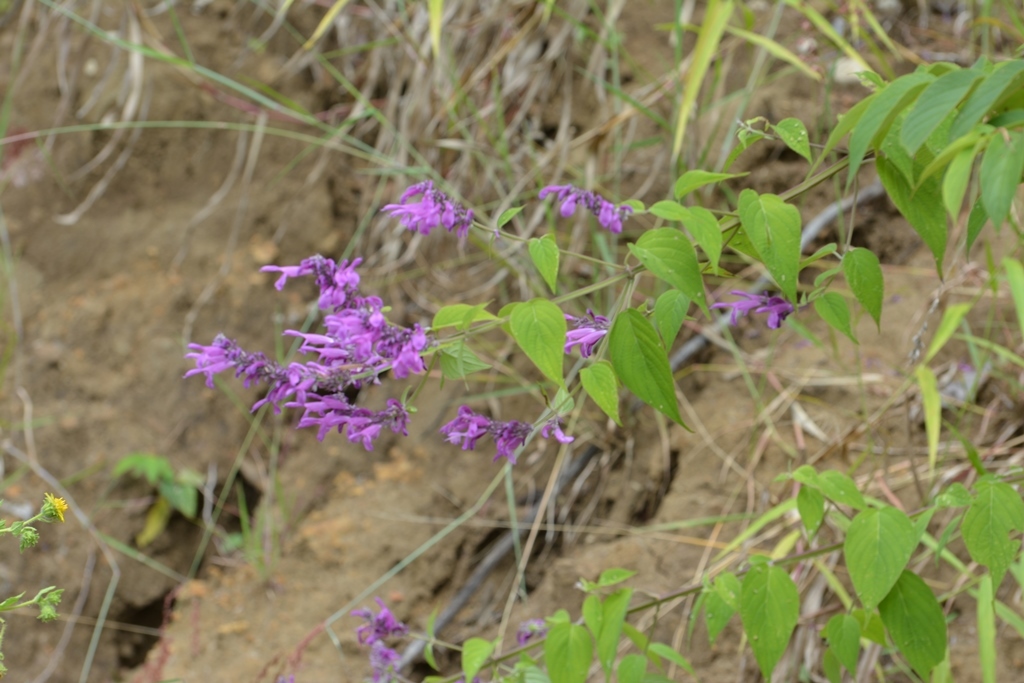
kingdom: Plantae
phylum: Tracheophyta
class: Magnoliopsida
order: Lamiales
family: Lamiaceae
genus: Salvia
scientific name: Salvia purpurea
